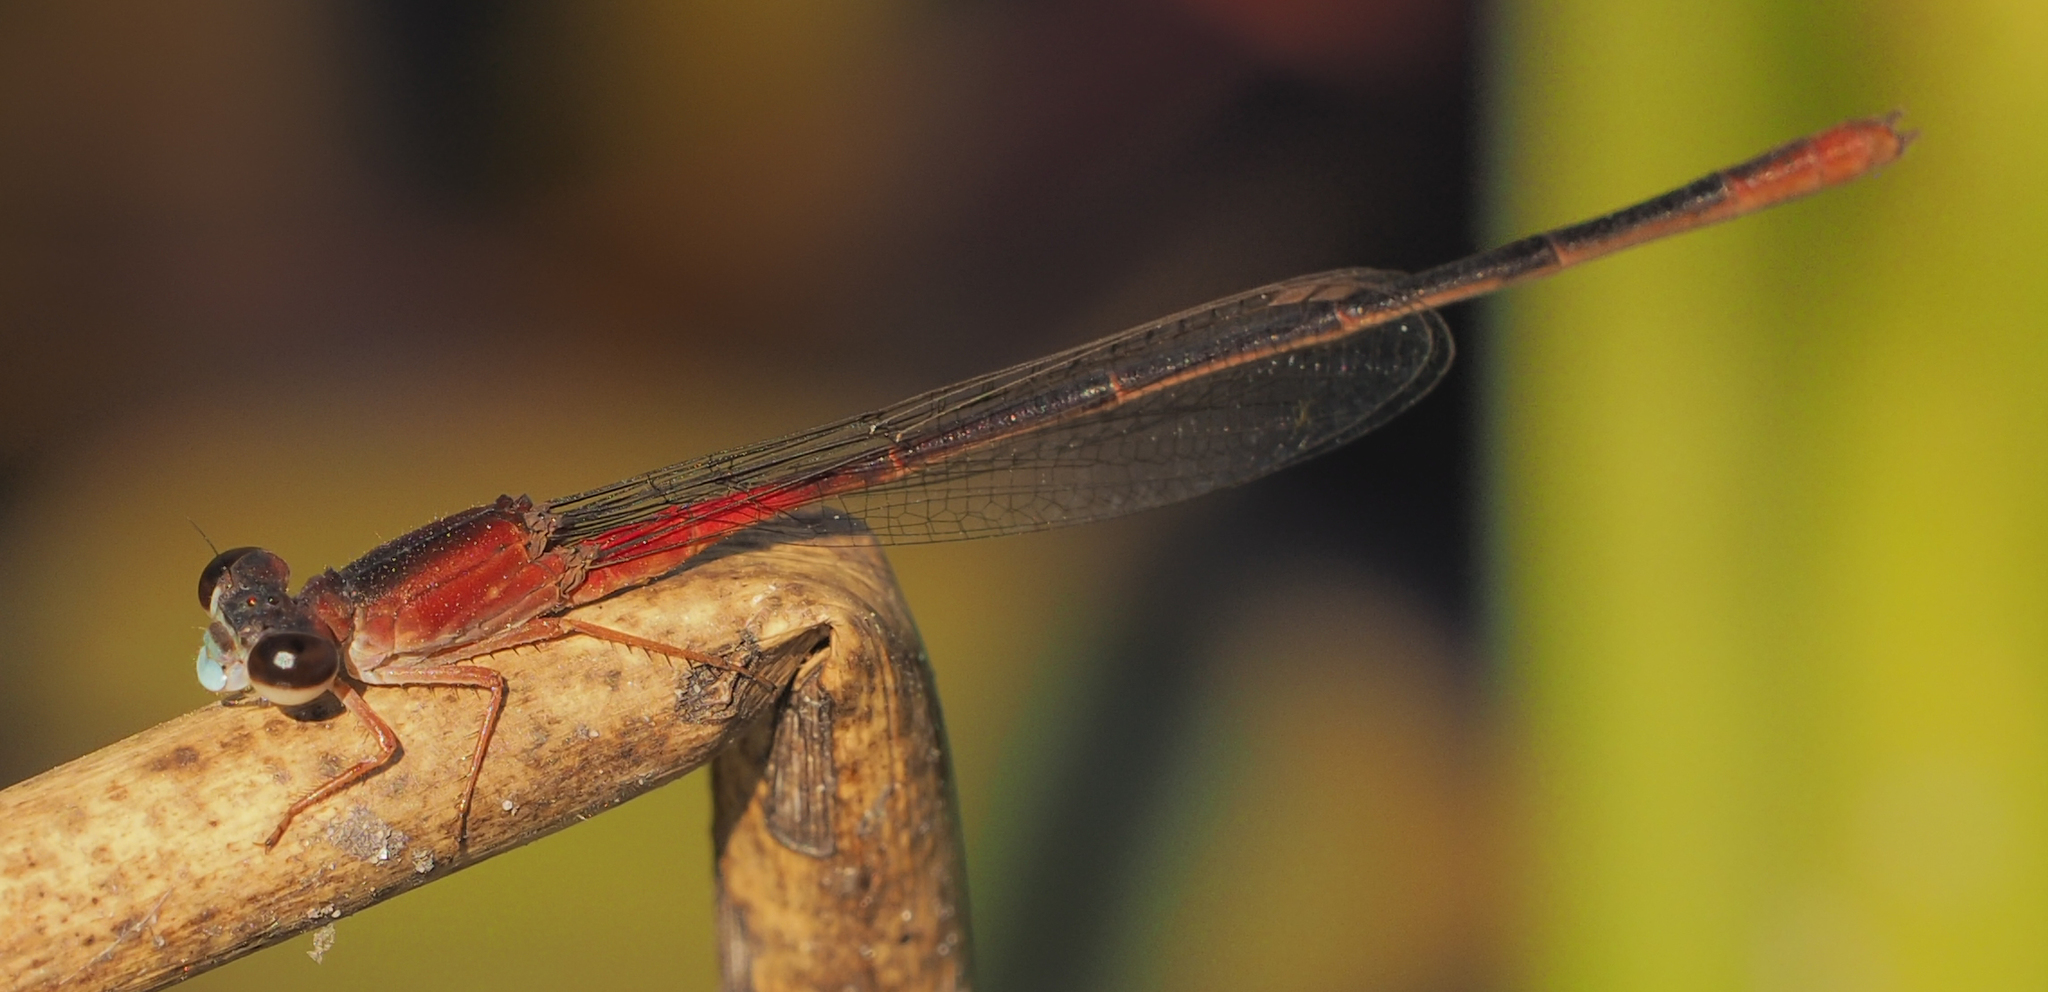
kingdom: Animalia
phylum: Arthropoda
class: Insecta
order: Odonata
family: Coenagrionidae
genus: Ceriagrion
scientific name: Ceriagrion katamborae
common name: White-faced waxtail
